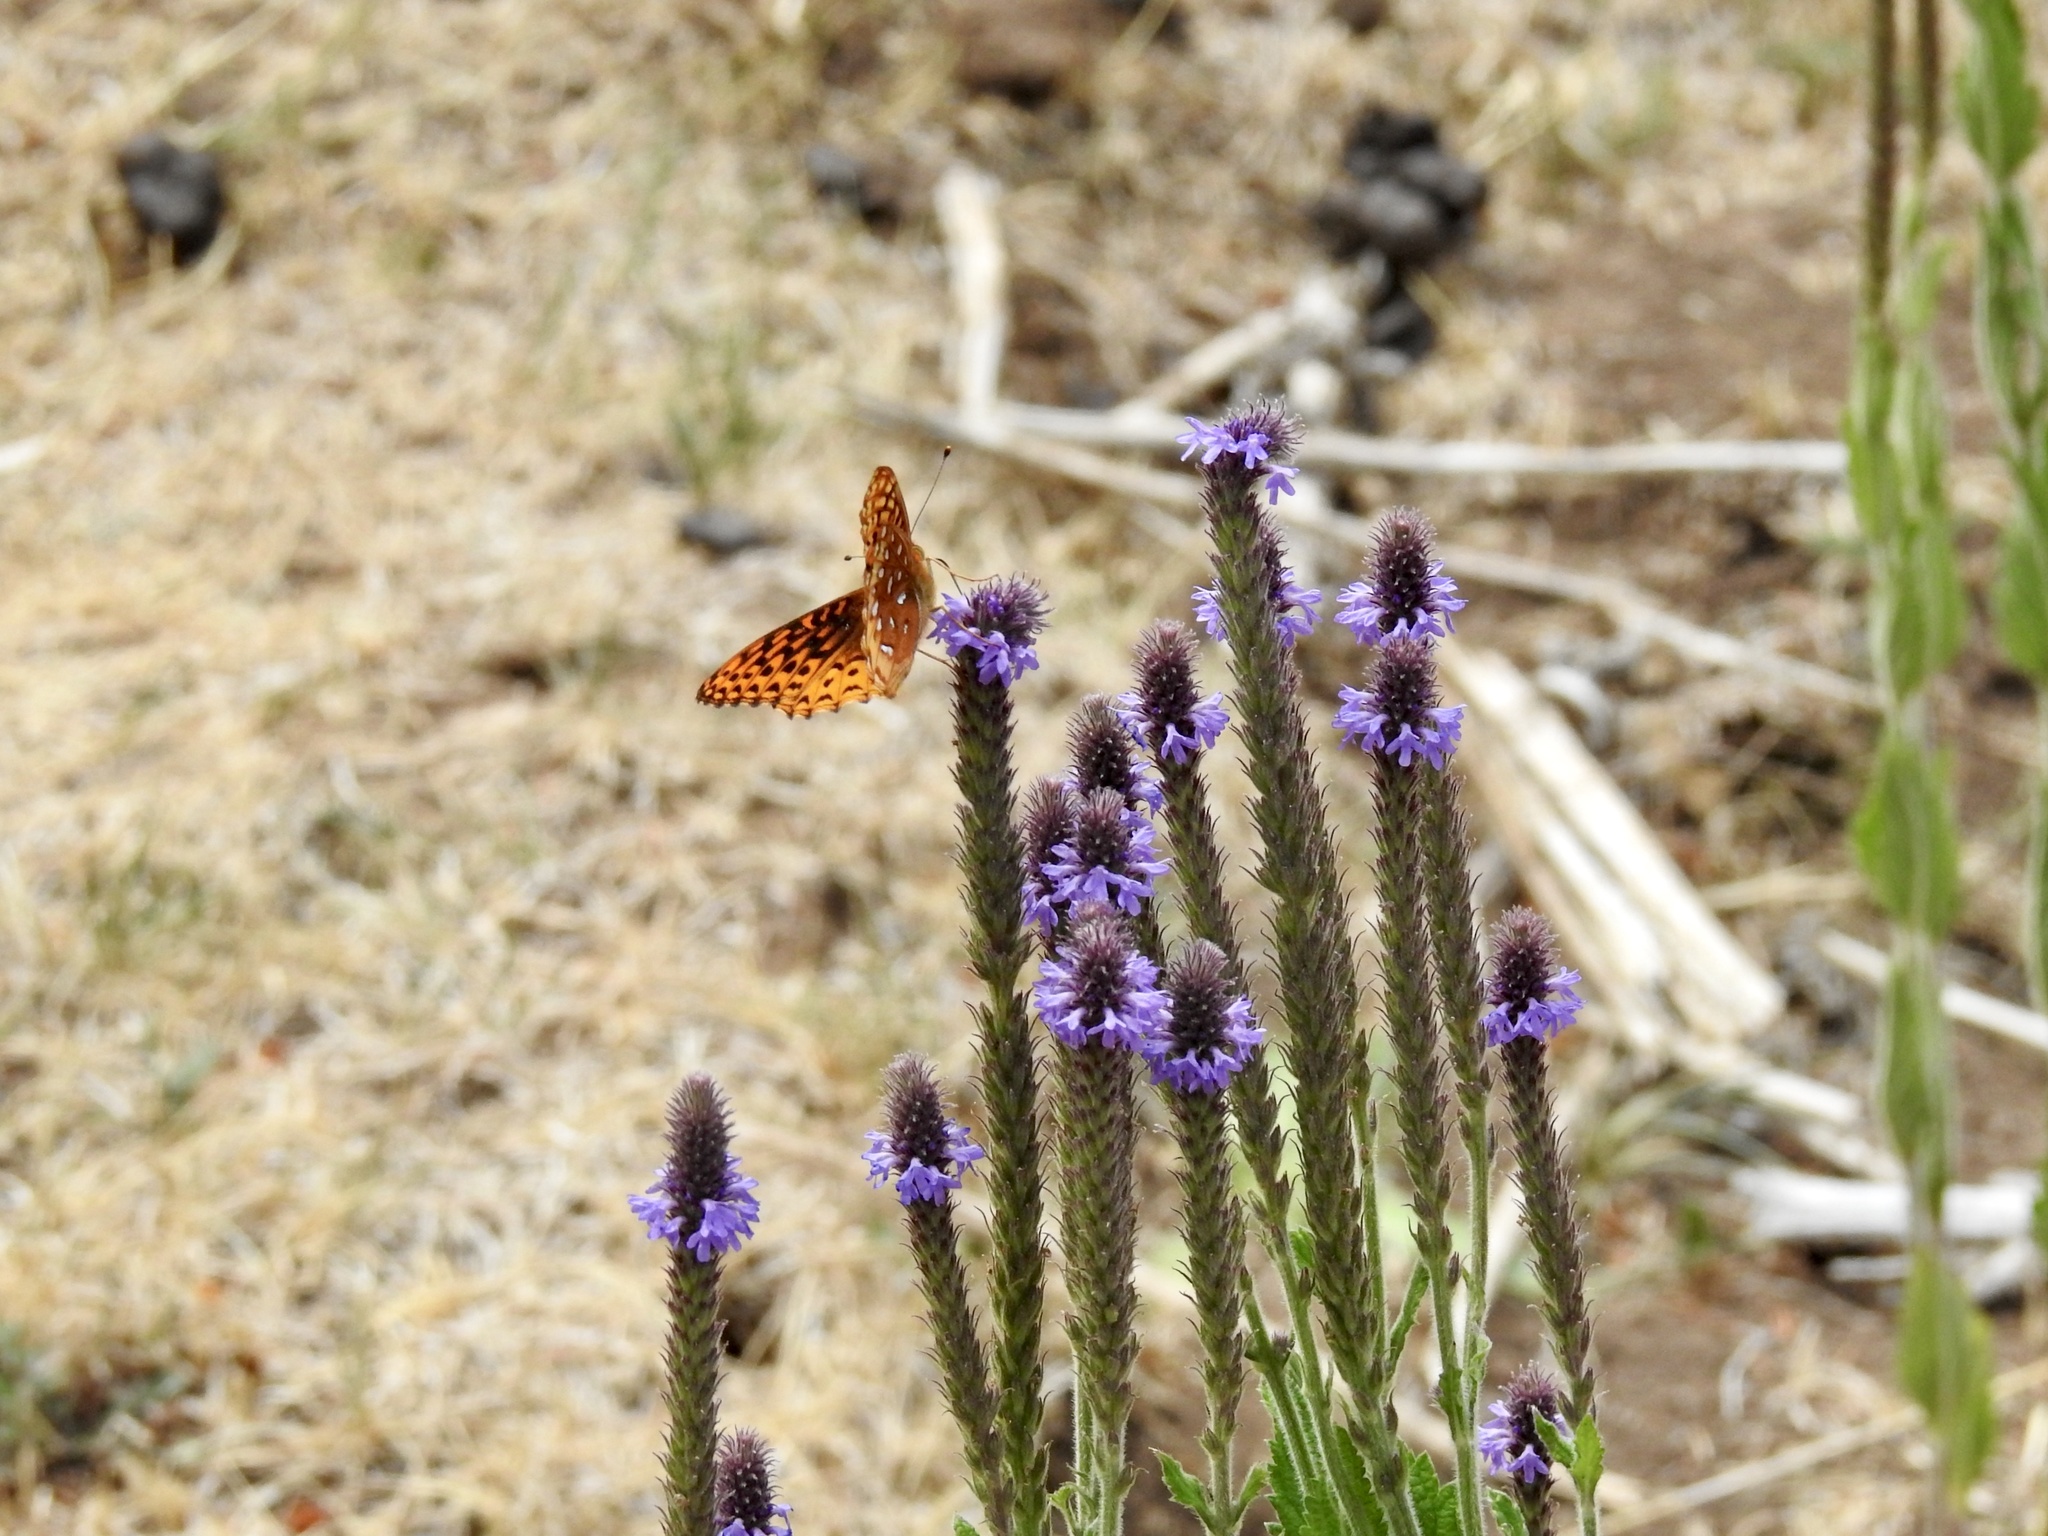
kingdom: Animalia
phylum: Arthropoda
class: Insecta
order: Lepidoptera
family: Nymphalidae
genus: Speyeria
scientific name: Speyeria atlantis
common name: Atlantis fritillary
